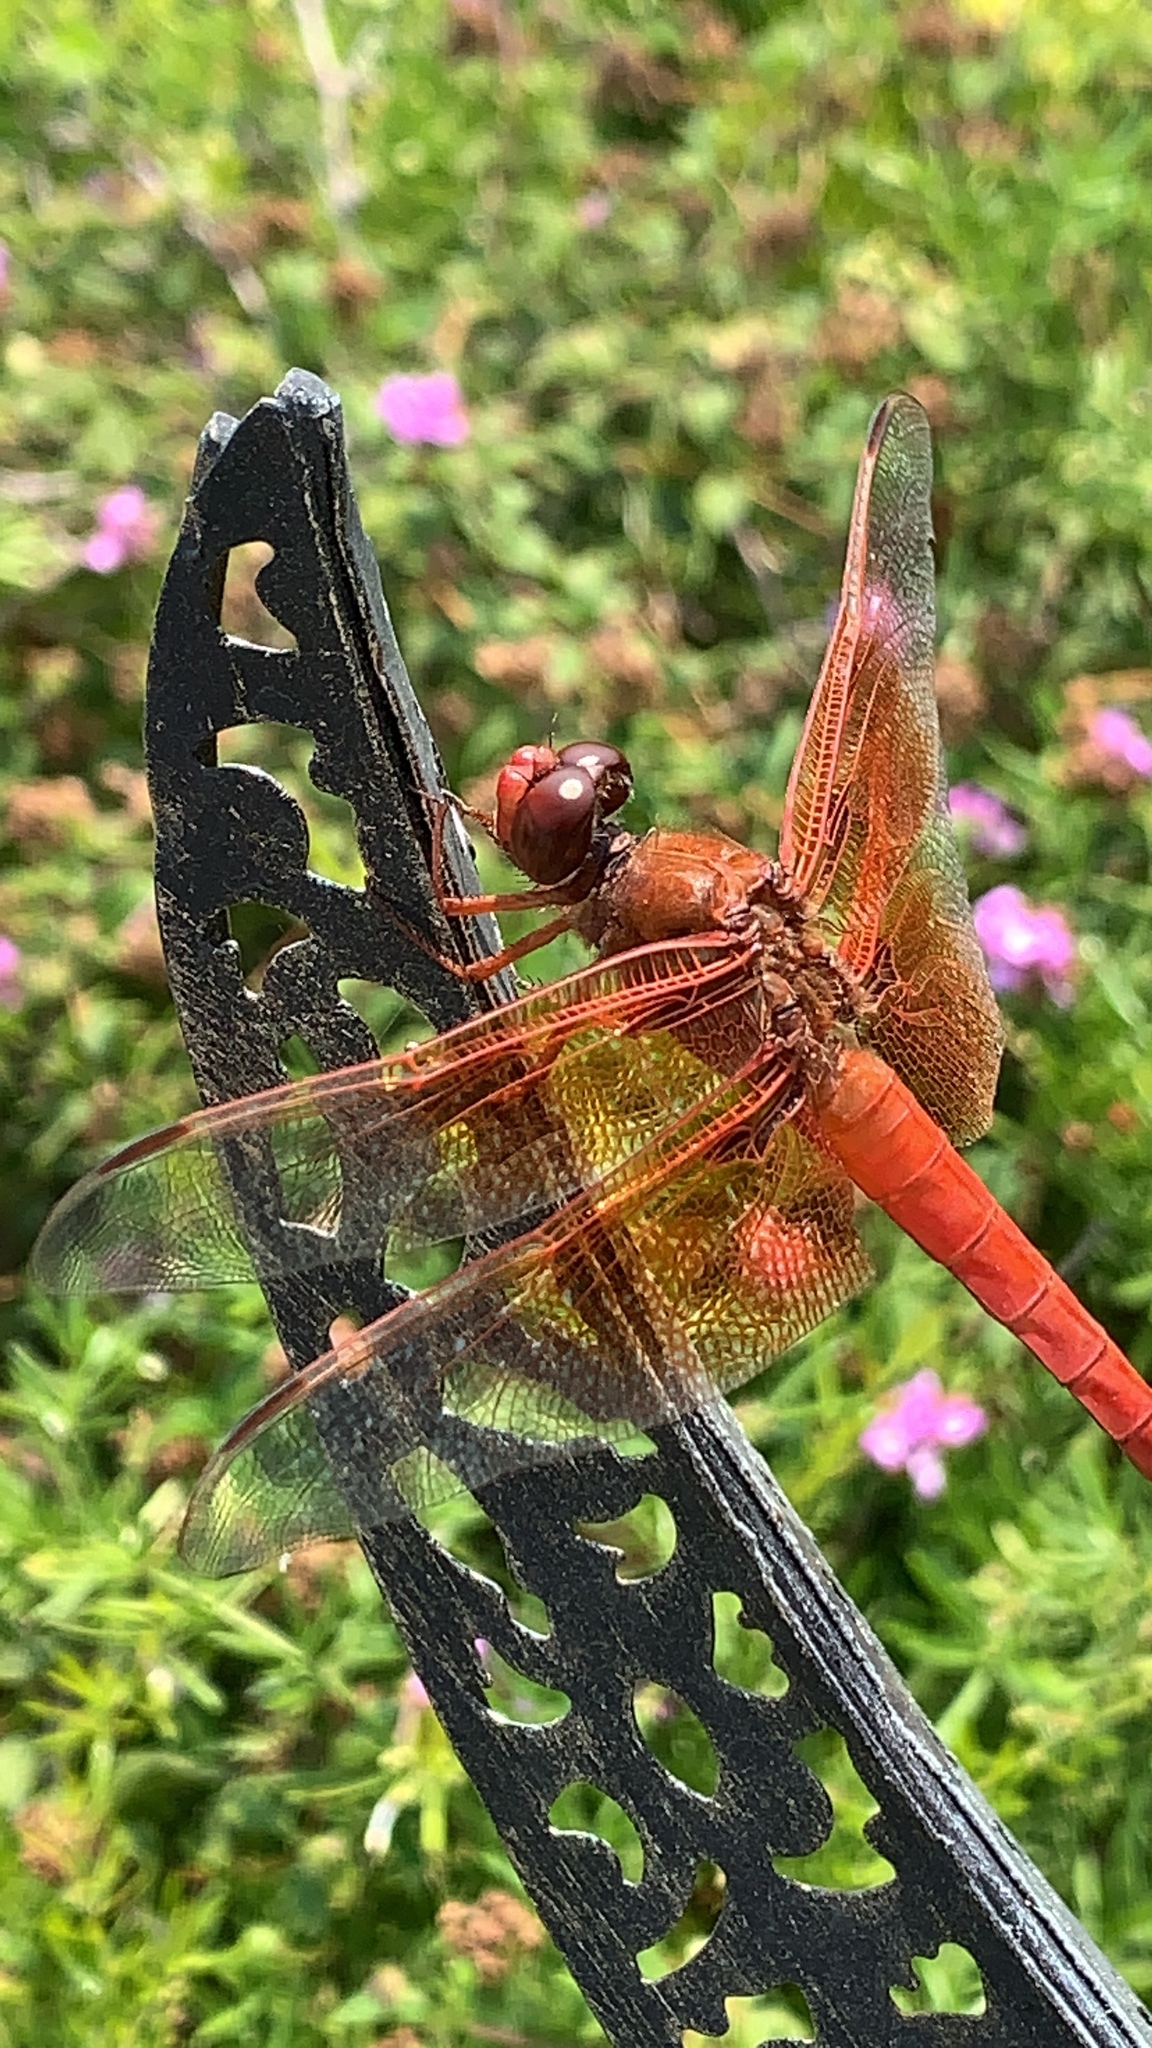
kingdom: Animalia
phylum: Arthropoda
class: Insecta
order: Odonata
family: Libellulidae
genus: Libellula
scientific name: Libellula saturata
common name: Flame skimmer
